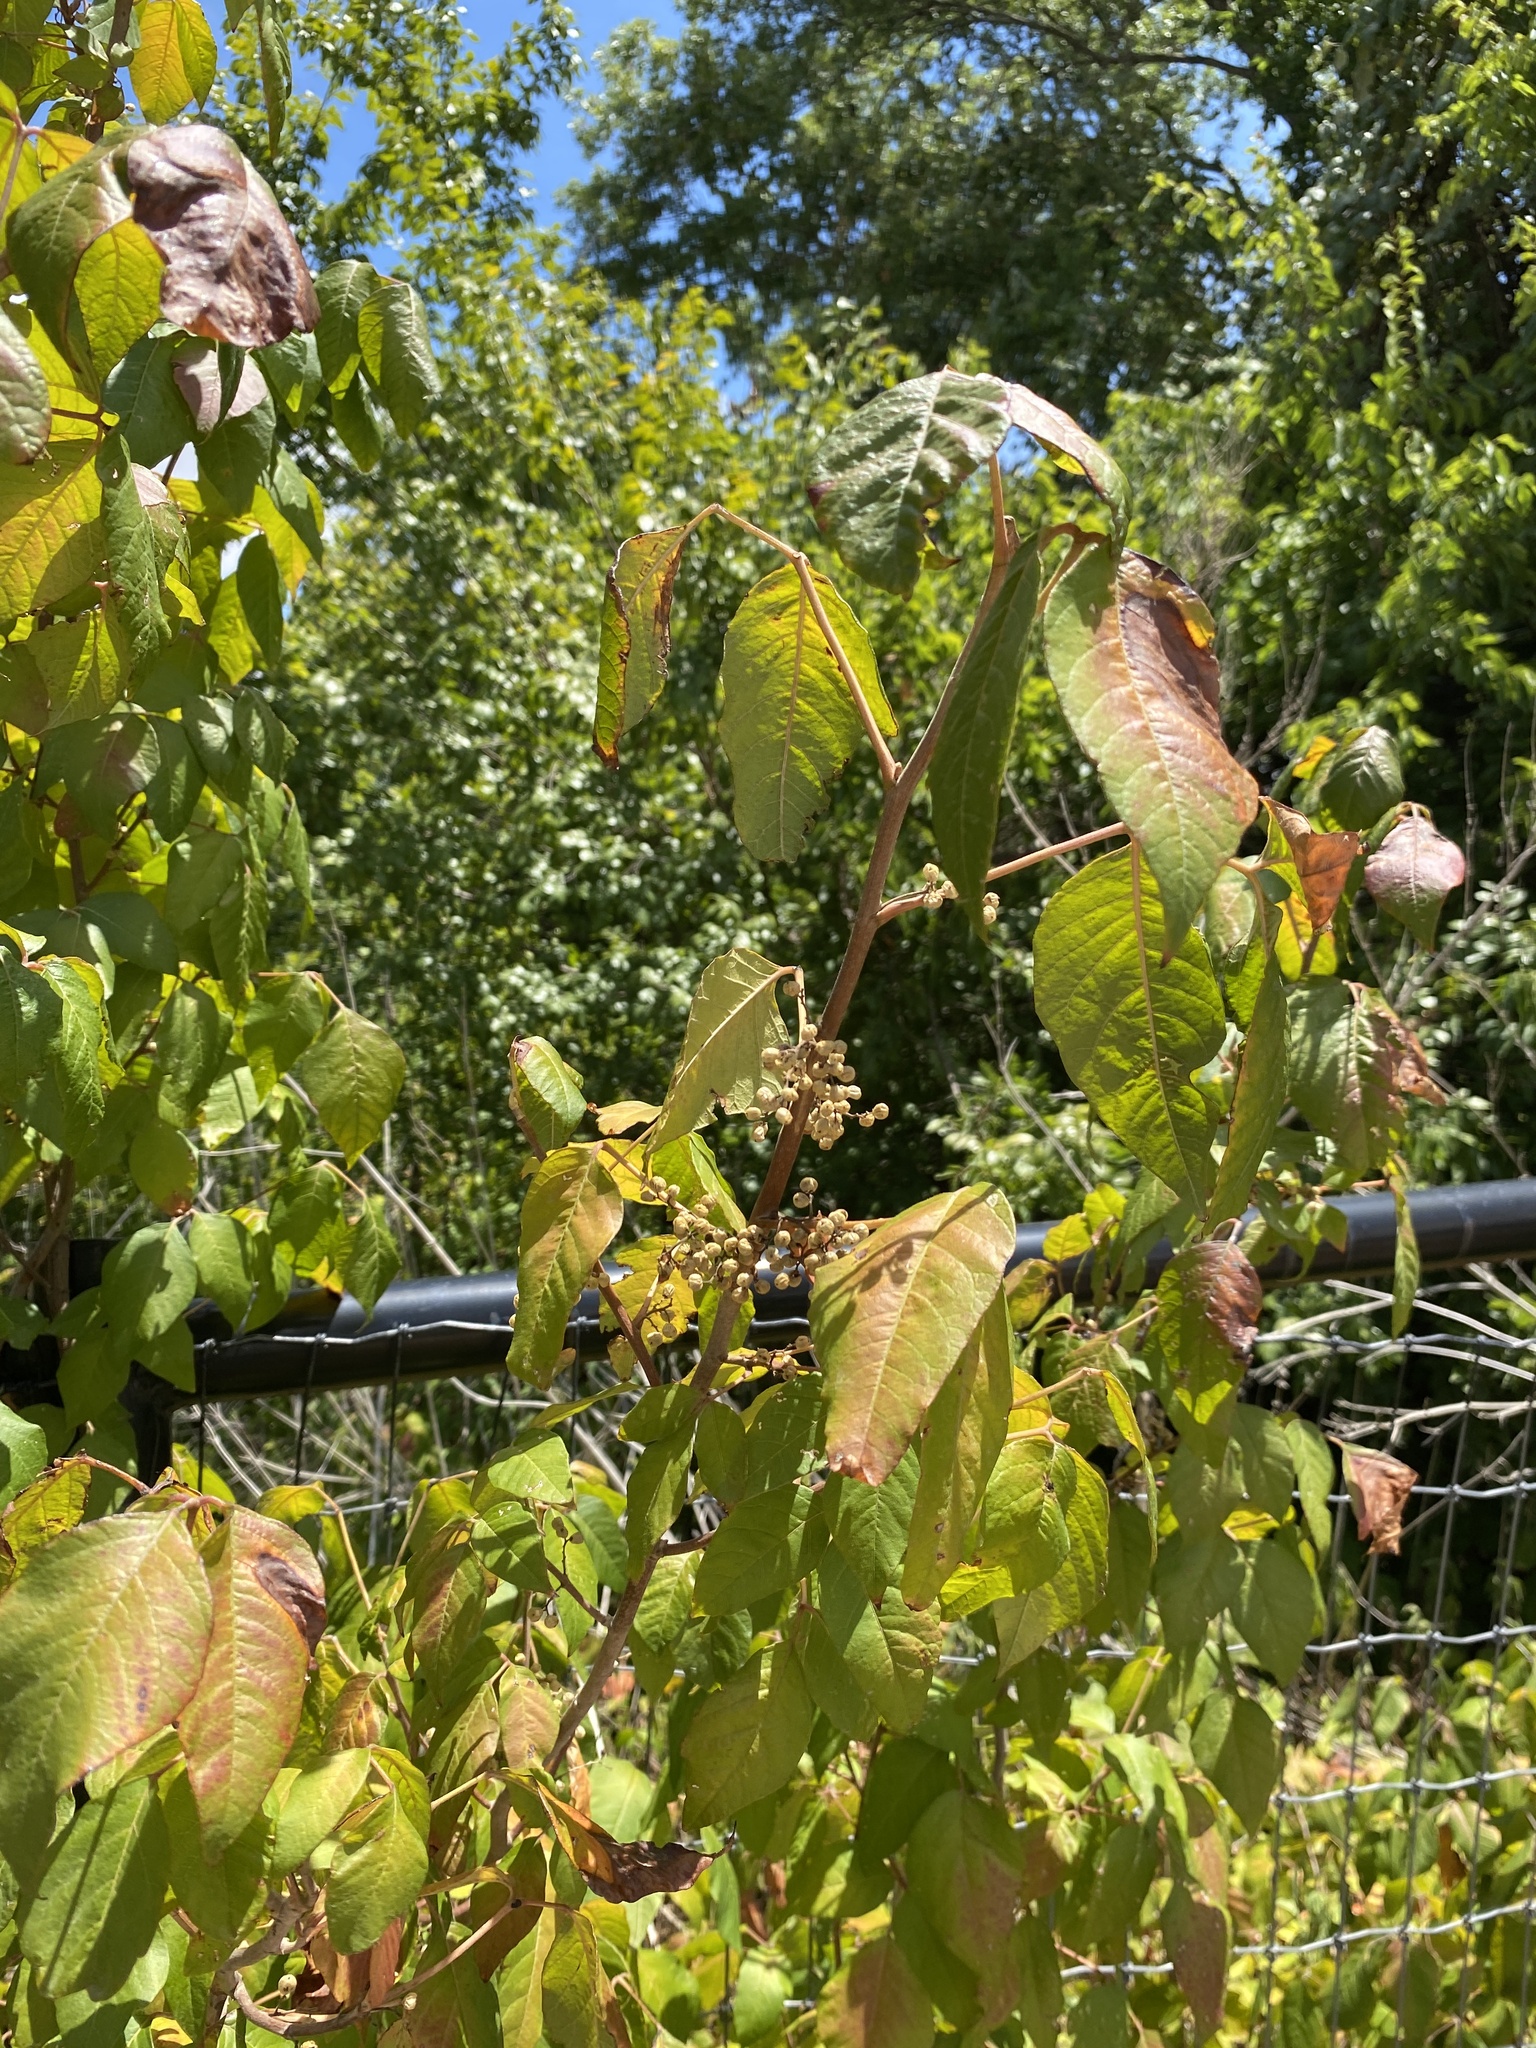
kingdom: Plantae
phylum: Tracheophyta
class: Magnoliopsida
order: Sapindales
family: Anacardiaceae
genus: Toxicodendron
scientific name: Toxicodendron radicans
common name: Poison ivy
